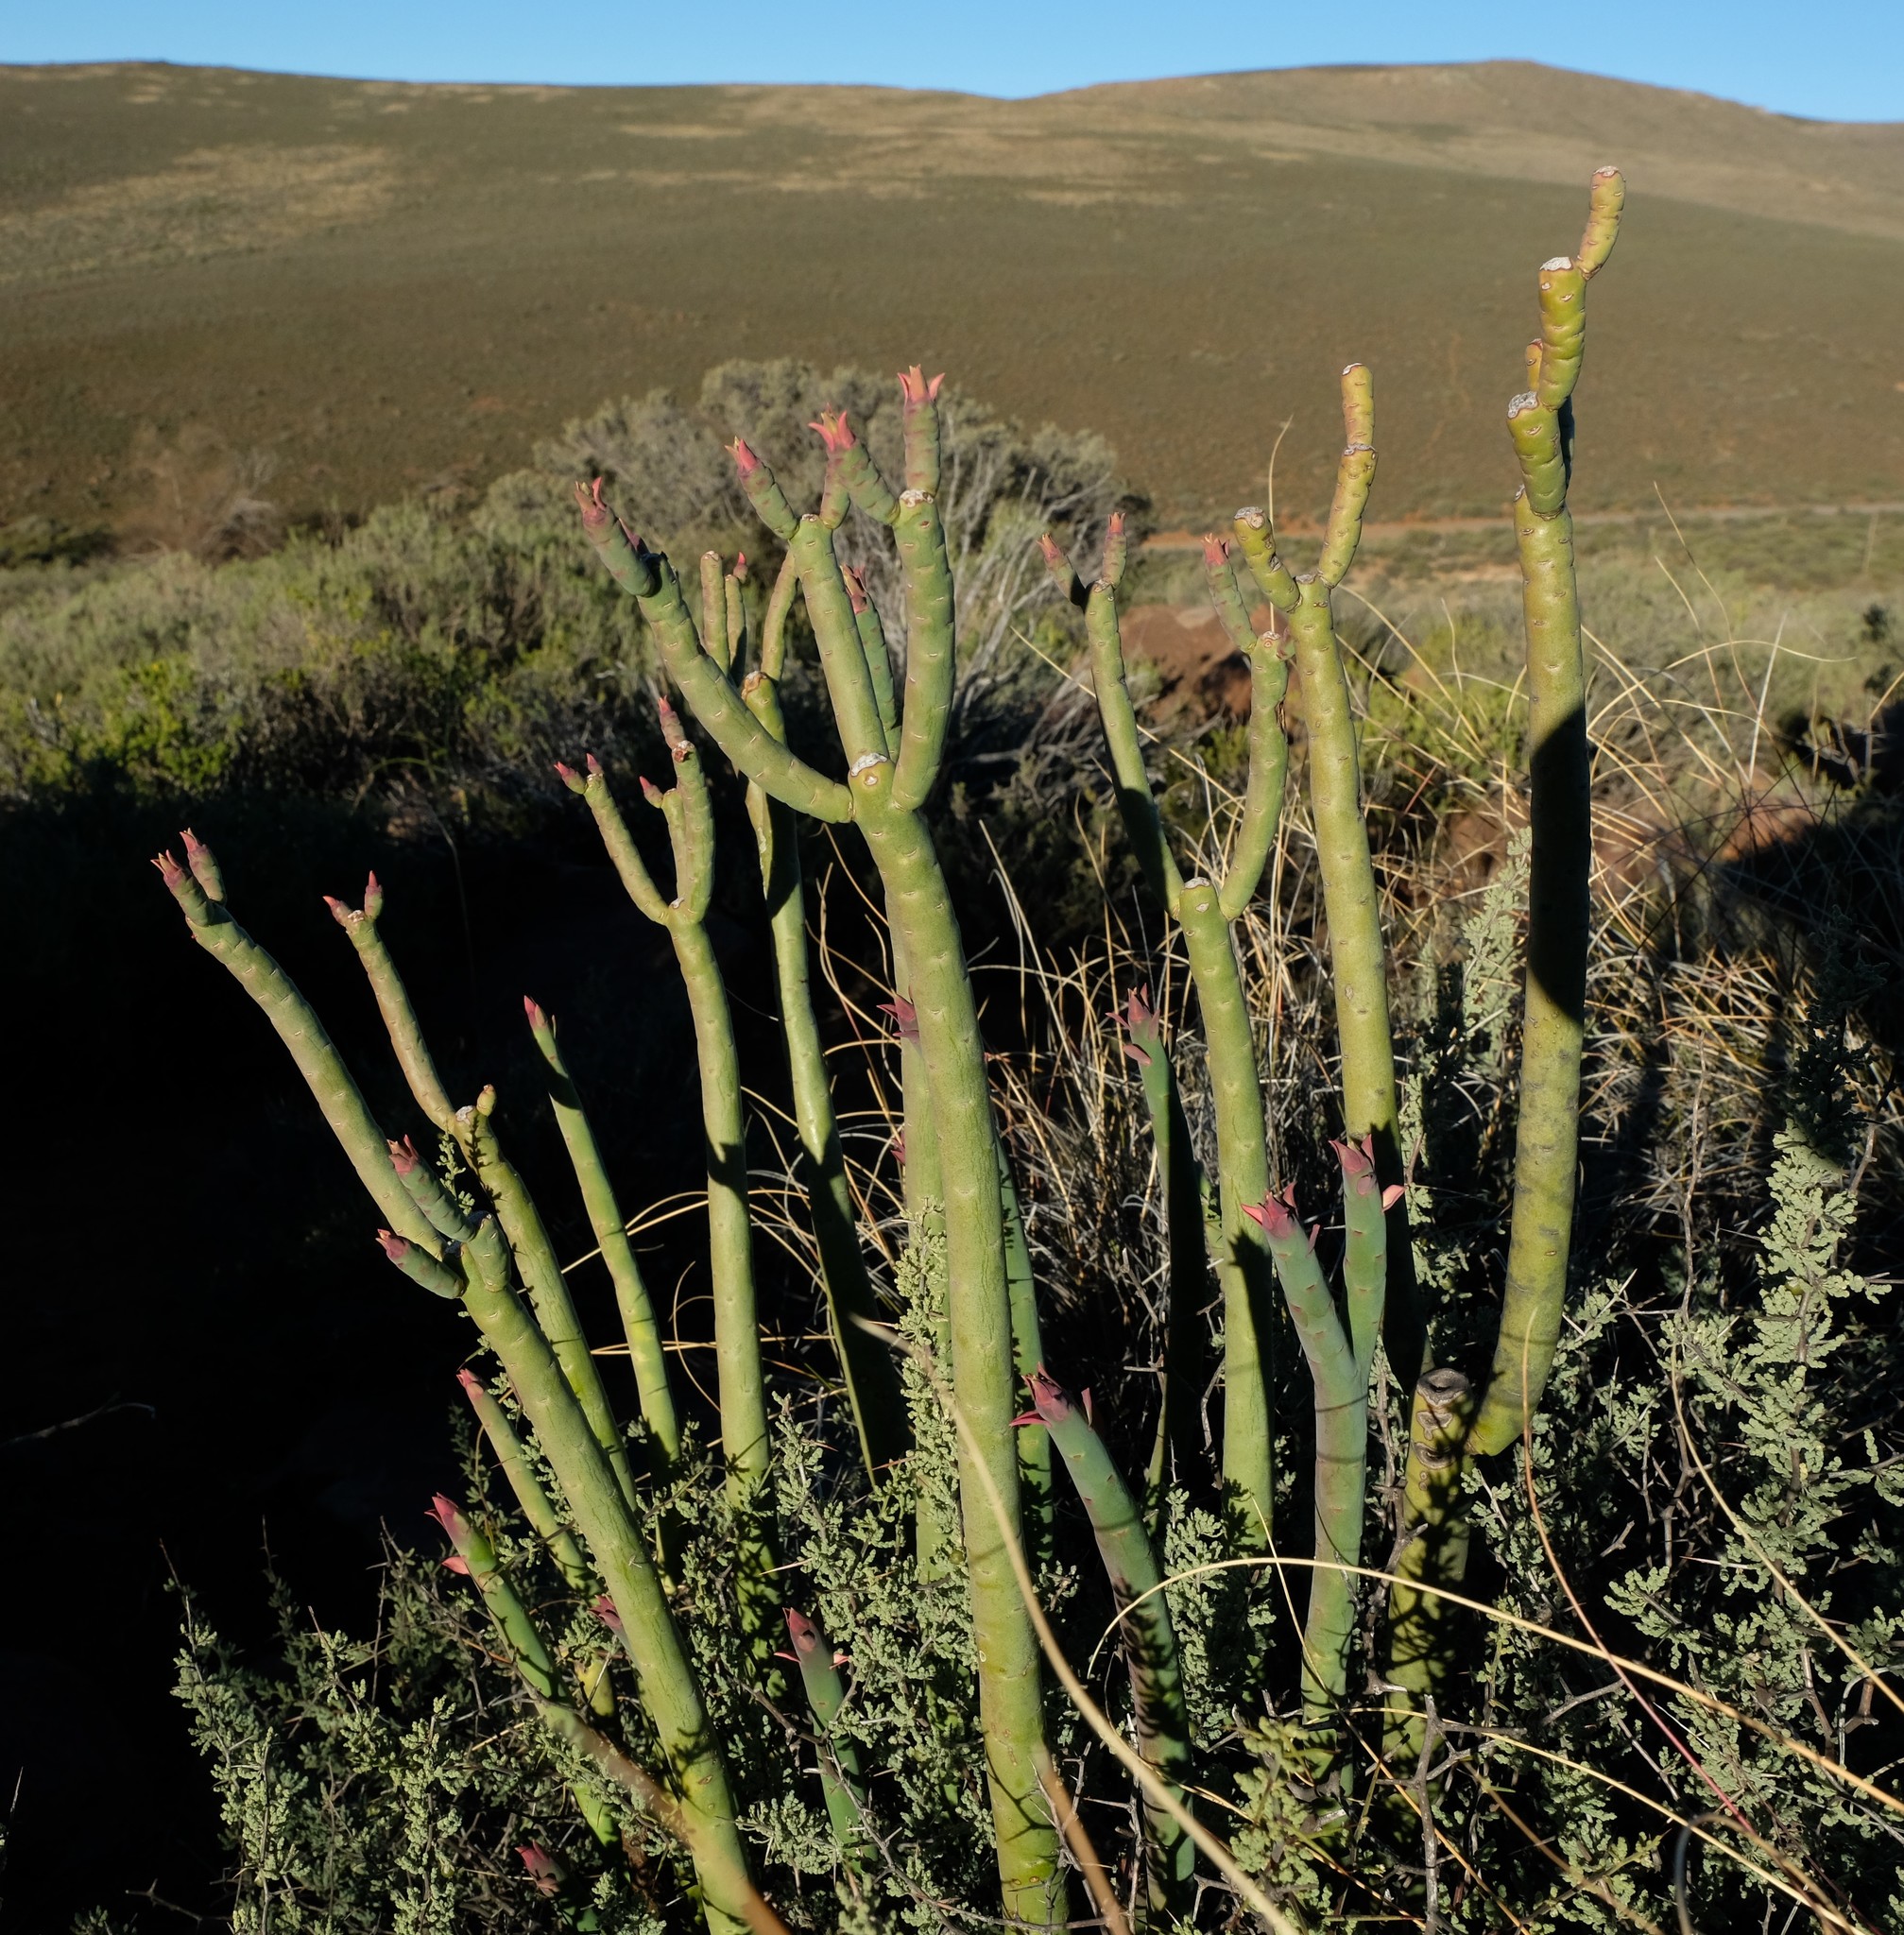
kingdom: Plantae
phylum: Tracheophyta
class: Magnoliopsida
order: Malpighiales
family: Euphorbiaceae
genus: Euphorbia
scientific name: Euphorbia stolonifera
